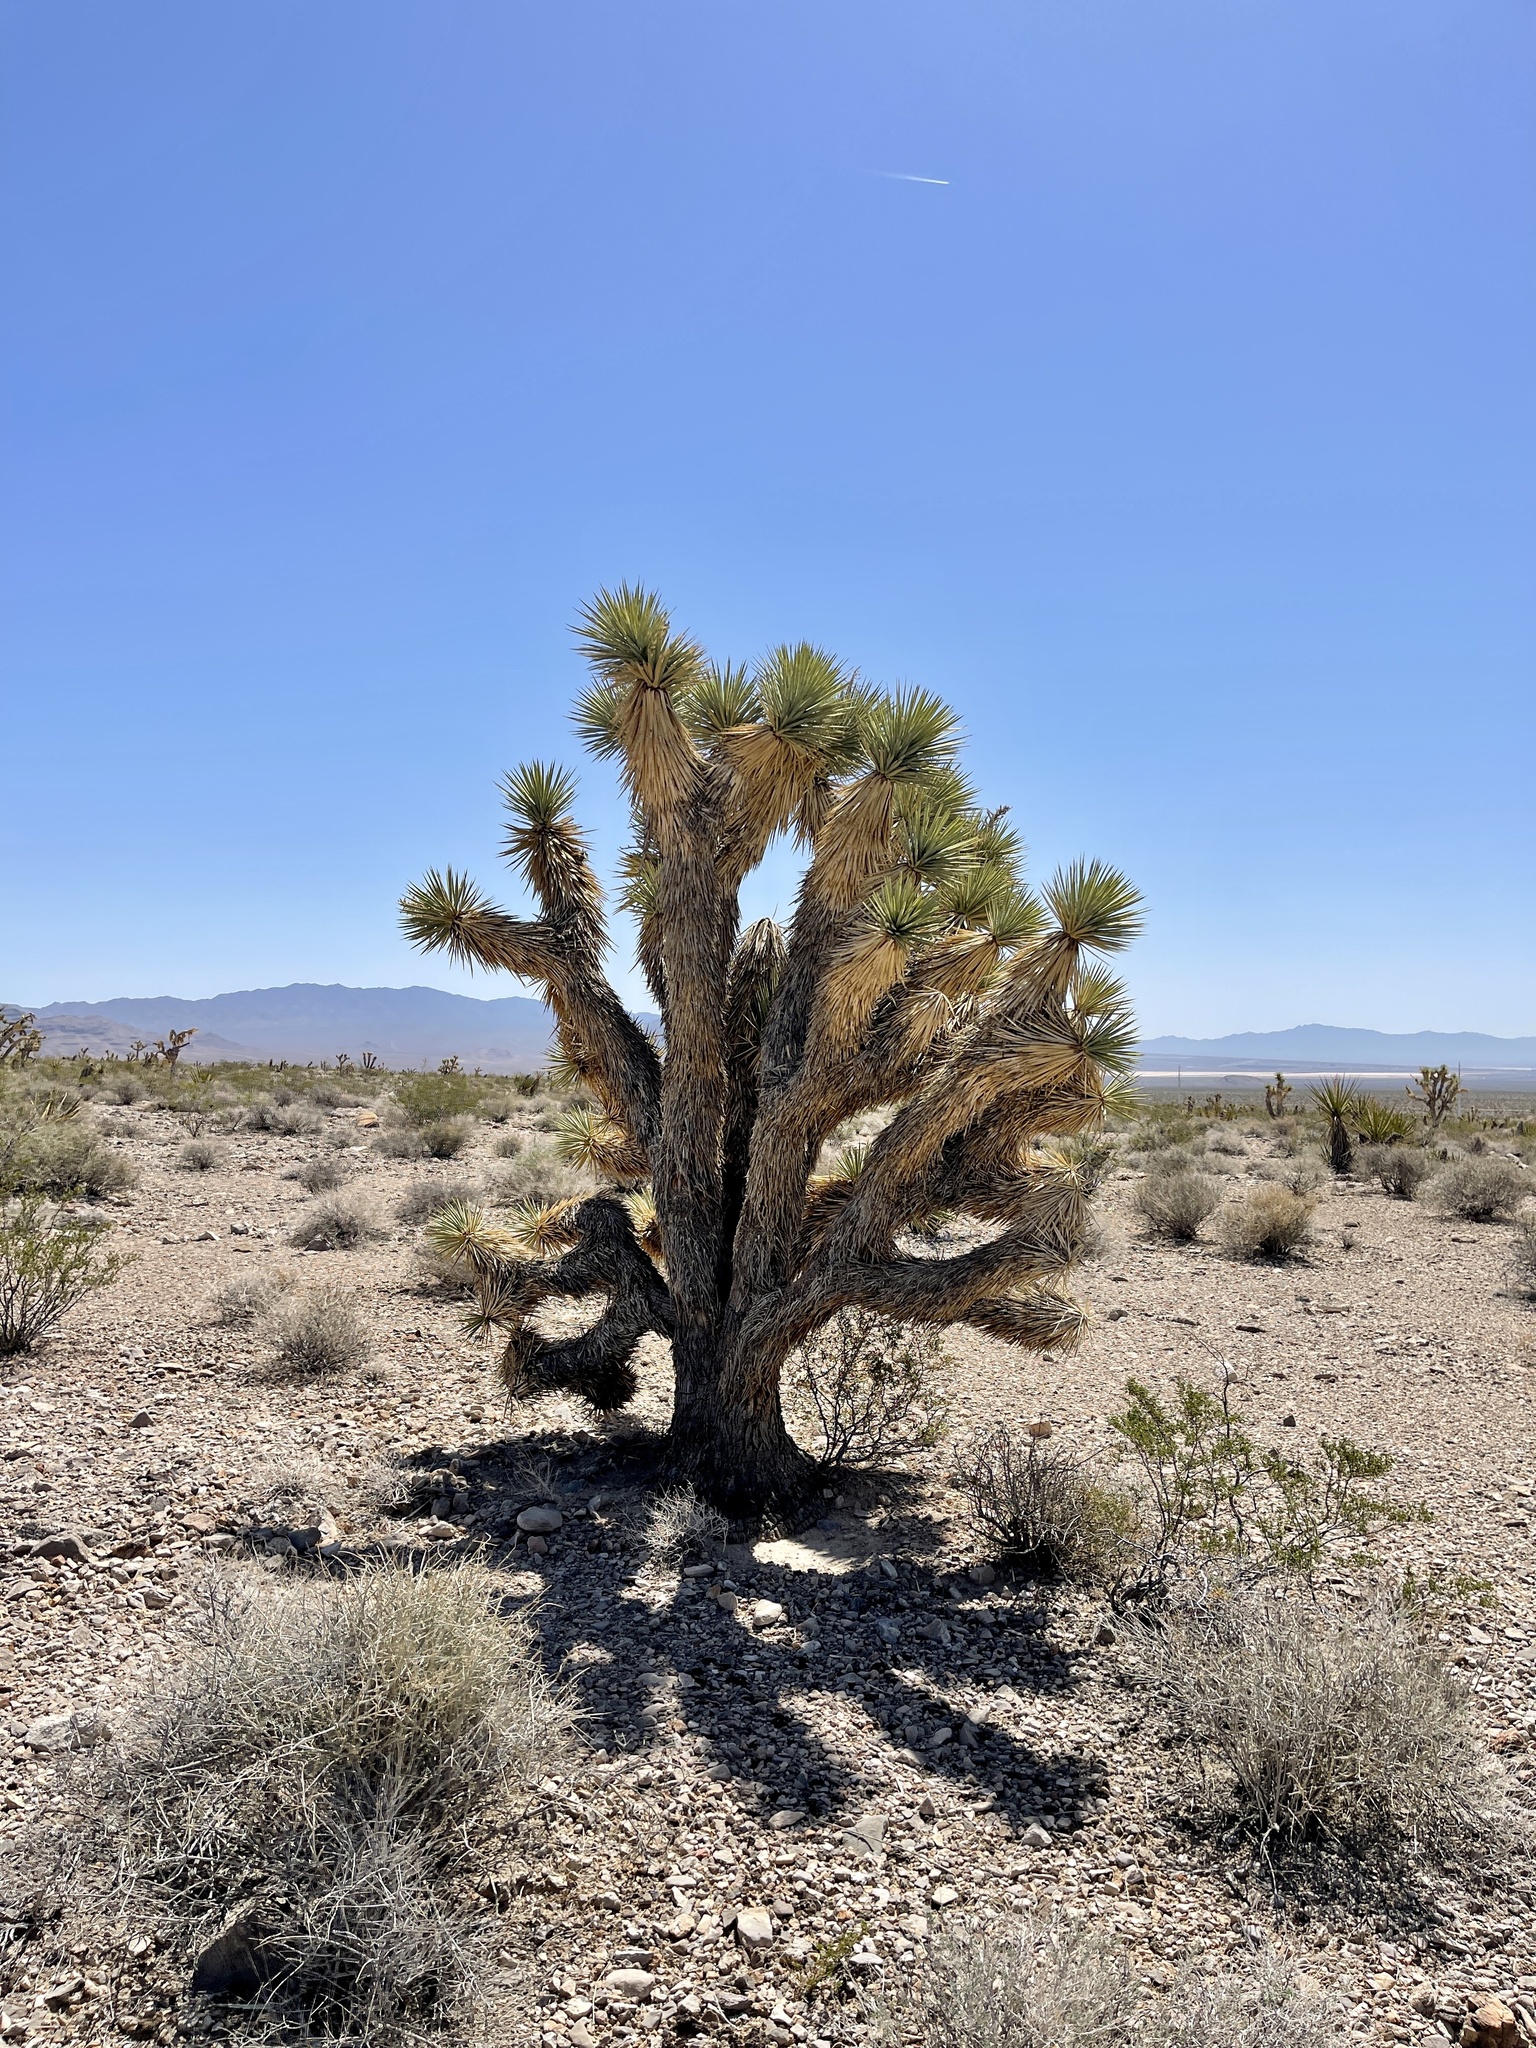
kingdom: Plantae
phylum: Tracheophyta
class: Liliopsida
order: Asparagales
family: Asparagaceae
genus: Yucca
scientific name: Yucca brevifolia
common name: Joshua tree
